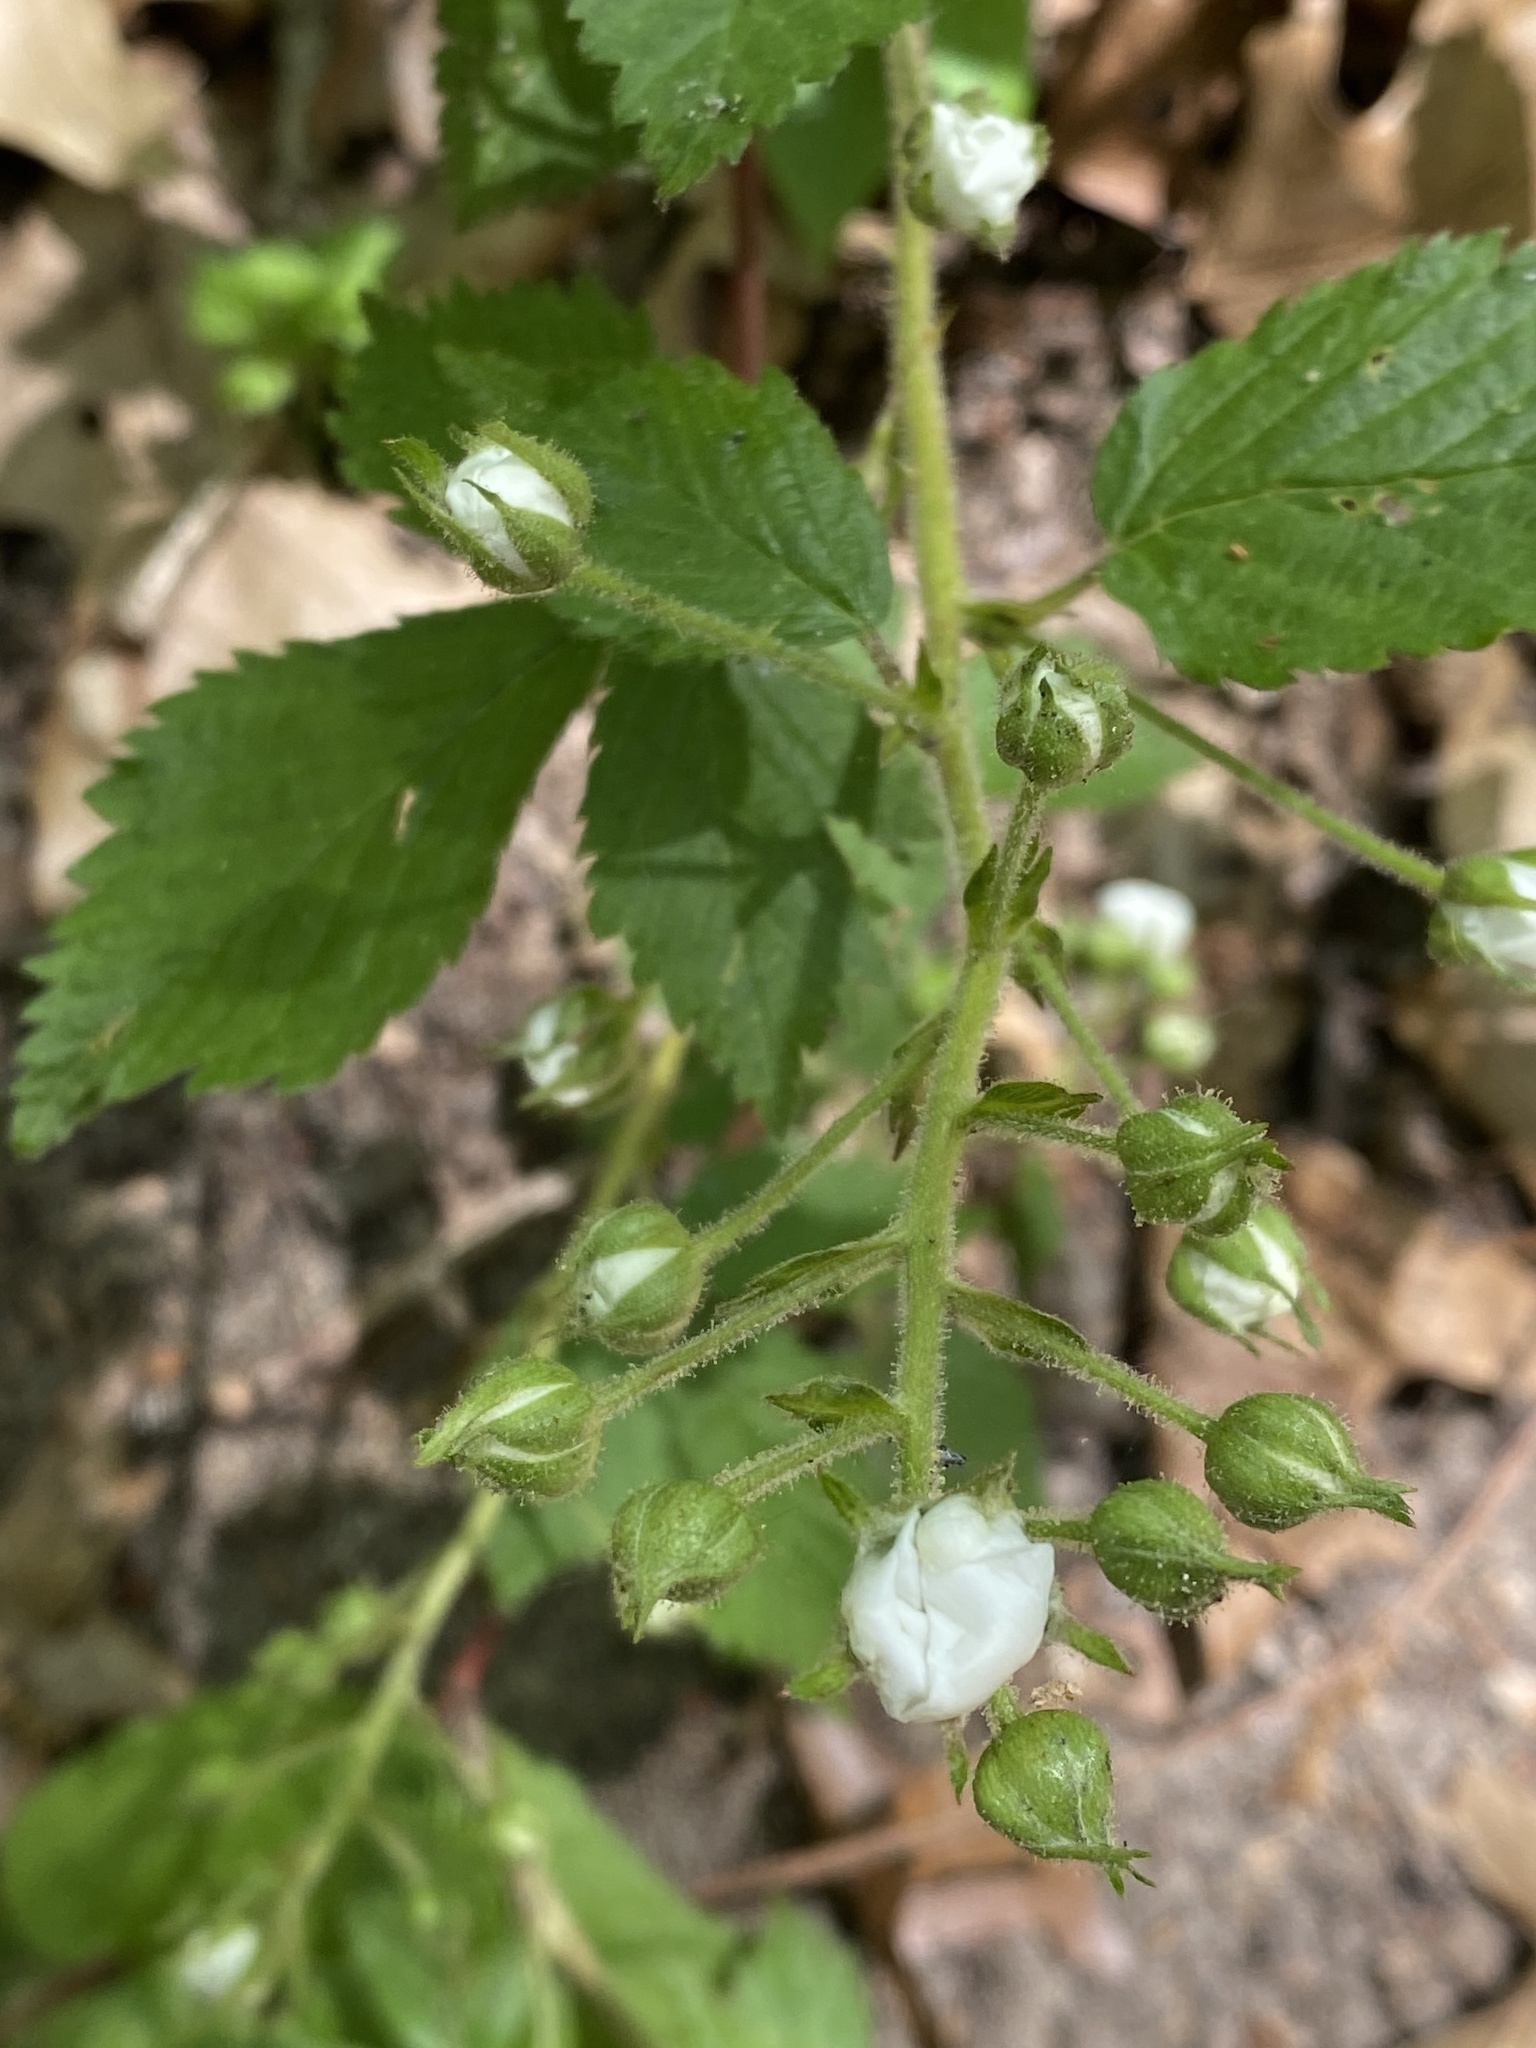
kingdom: Plantae
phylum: Tracheophyta
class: Magnoliopsida
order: Rosales
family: Rosaceae
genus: Rubus
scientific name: Rubus allegheniensis
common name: Allegheny blackberry
